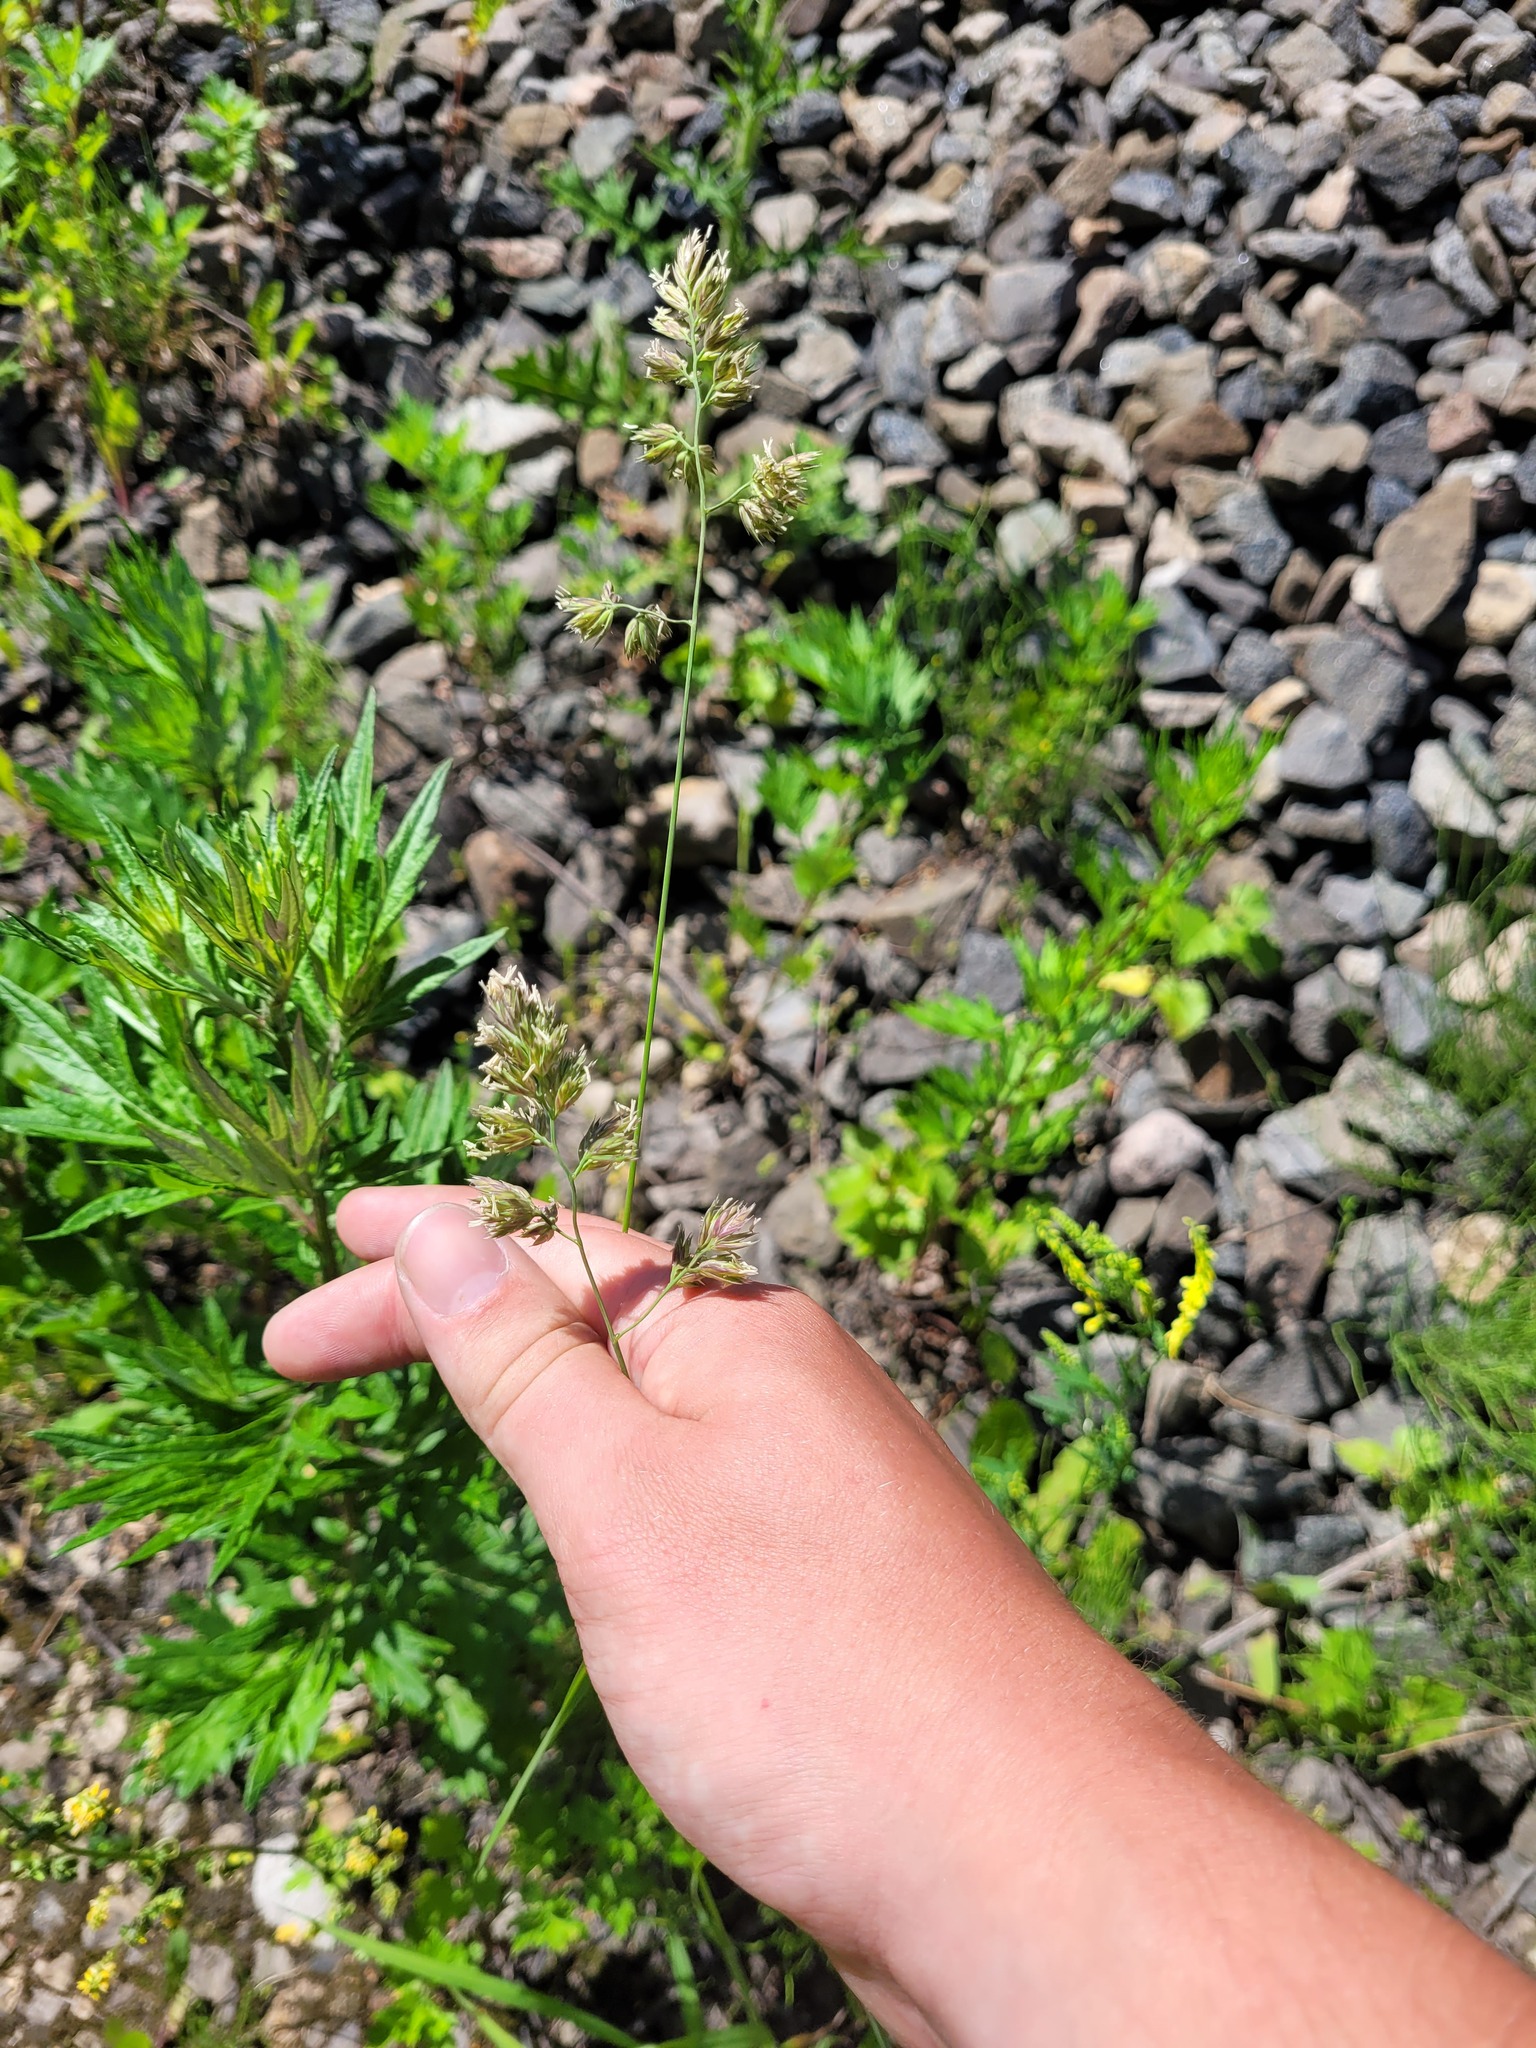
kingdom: Plantae
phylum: Tracheophyta
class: Liliopsida
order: Poales
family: Poaceae
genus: Dactylis
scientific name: Dactylis glomerata
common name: Orchardgrass
